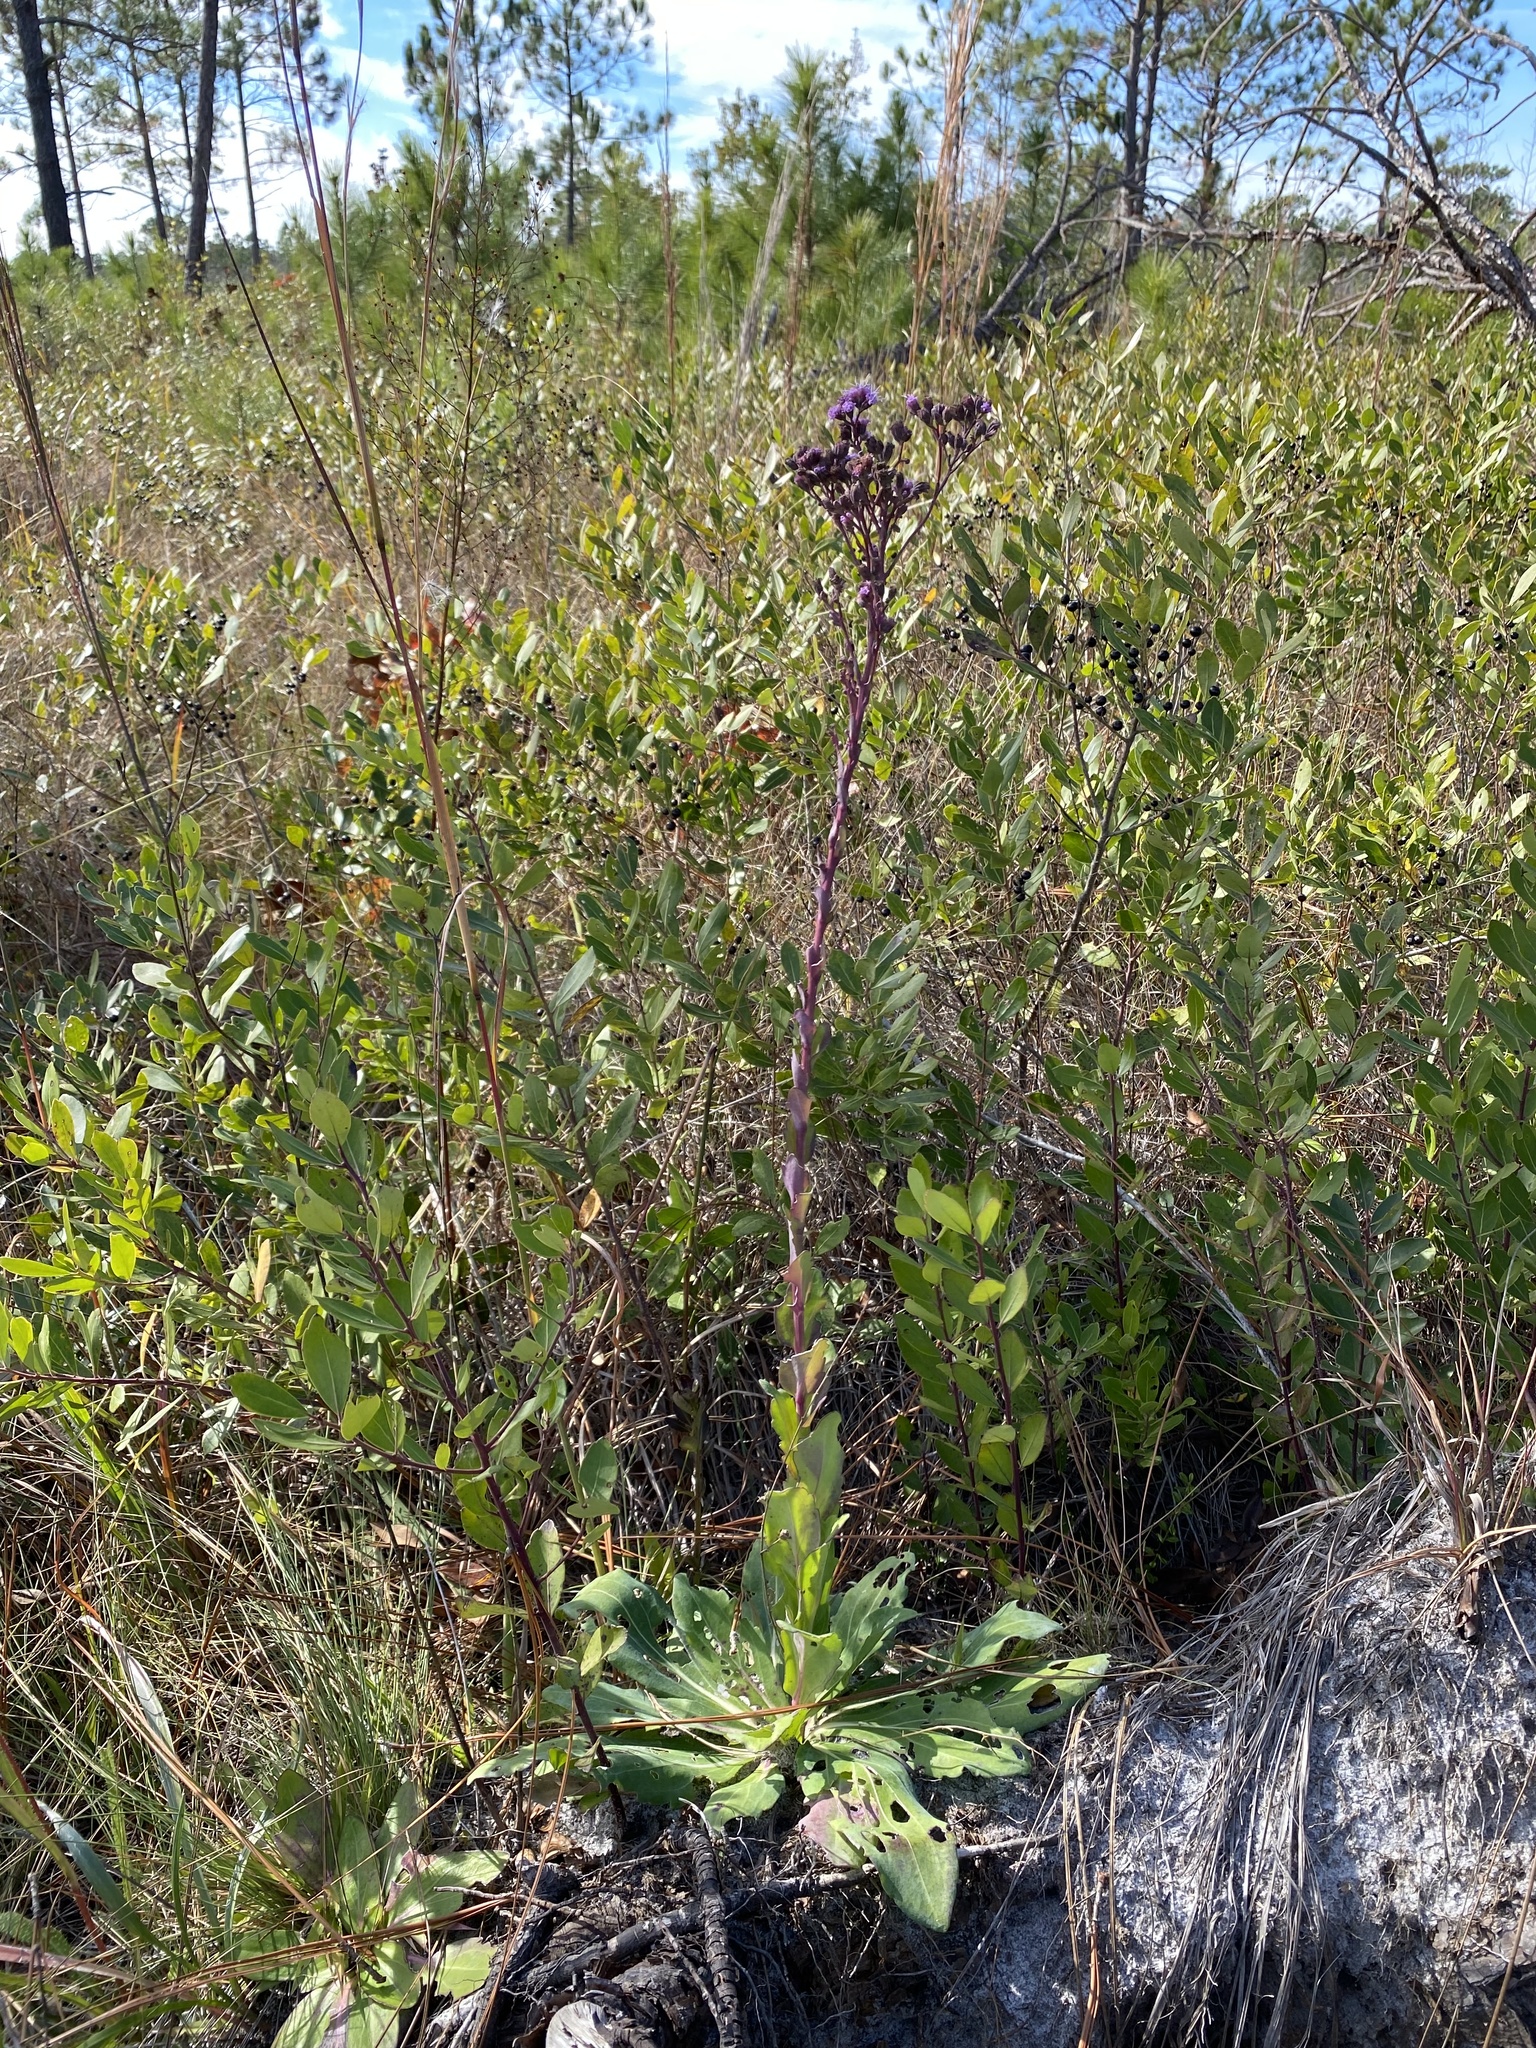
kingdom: Plantae
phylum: Tracheophyta
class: Magnoliopsida
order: Asterales
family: Asteraceae
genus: Carphephorus
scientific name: Carphephorus odoratissimus
